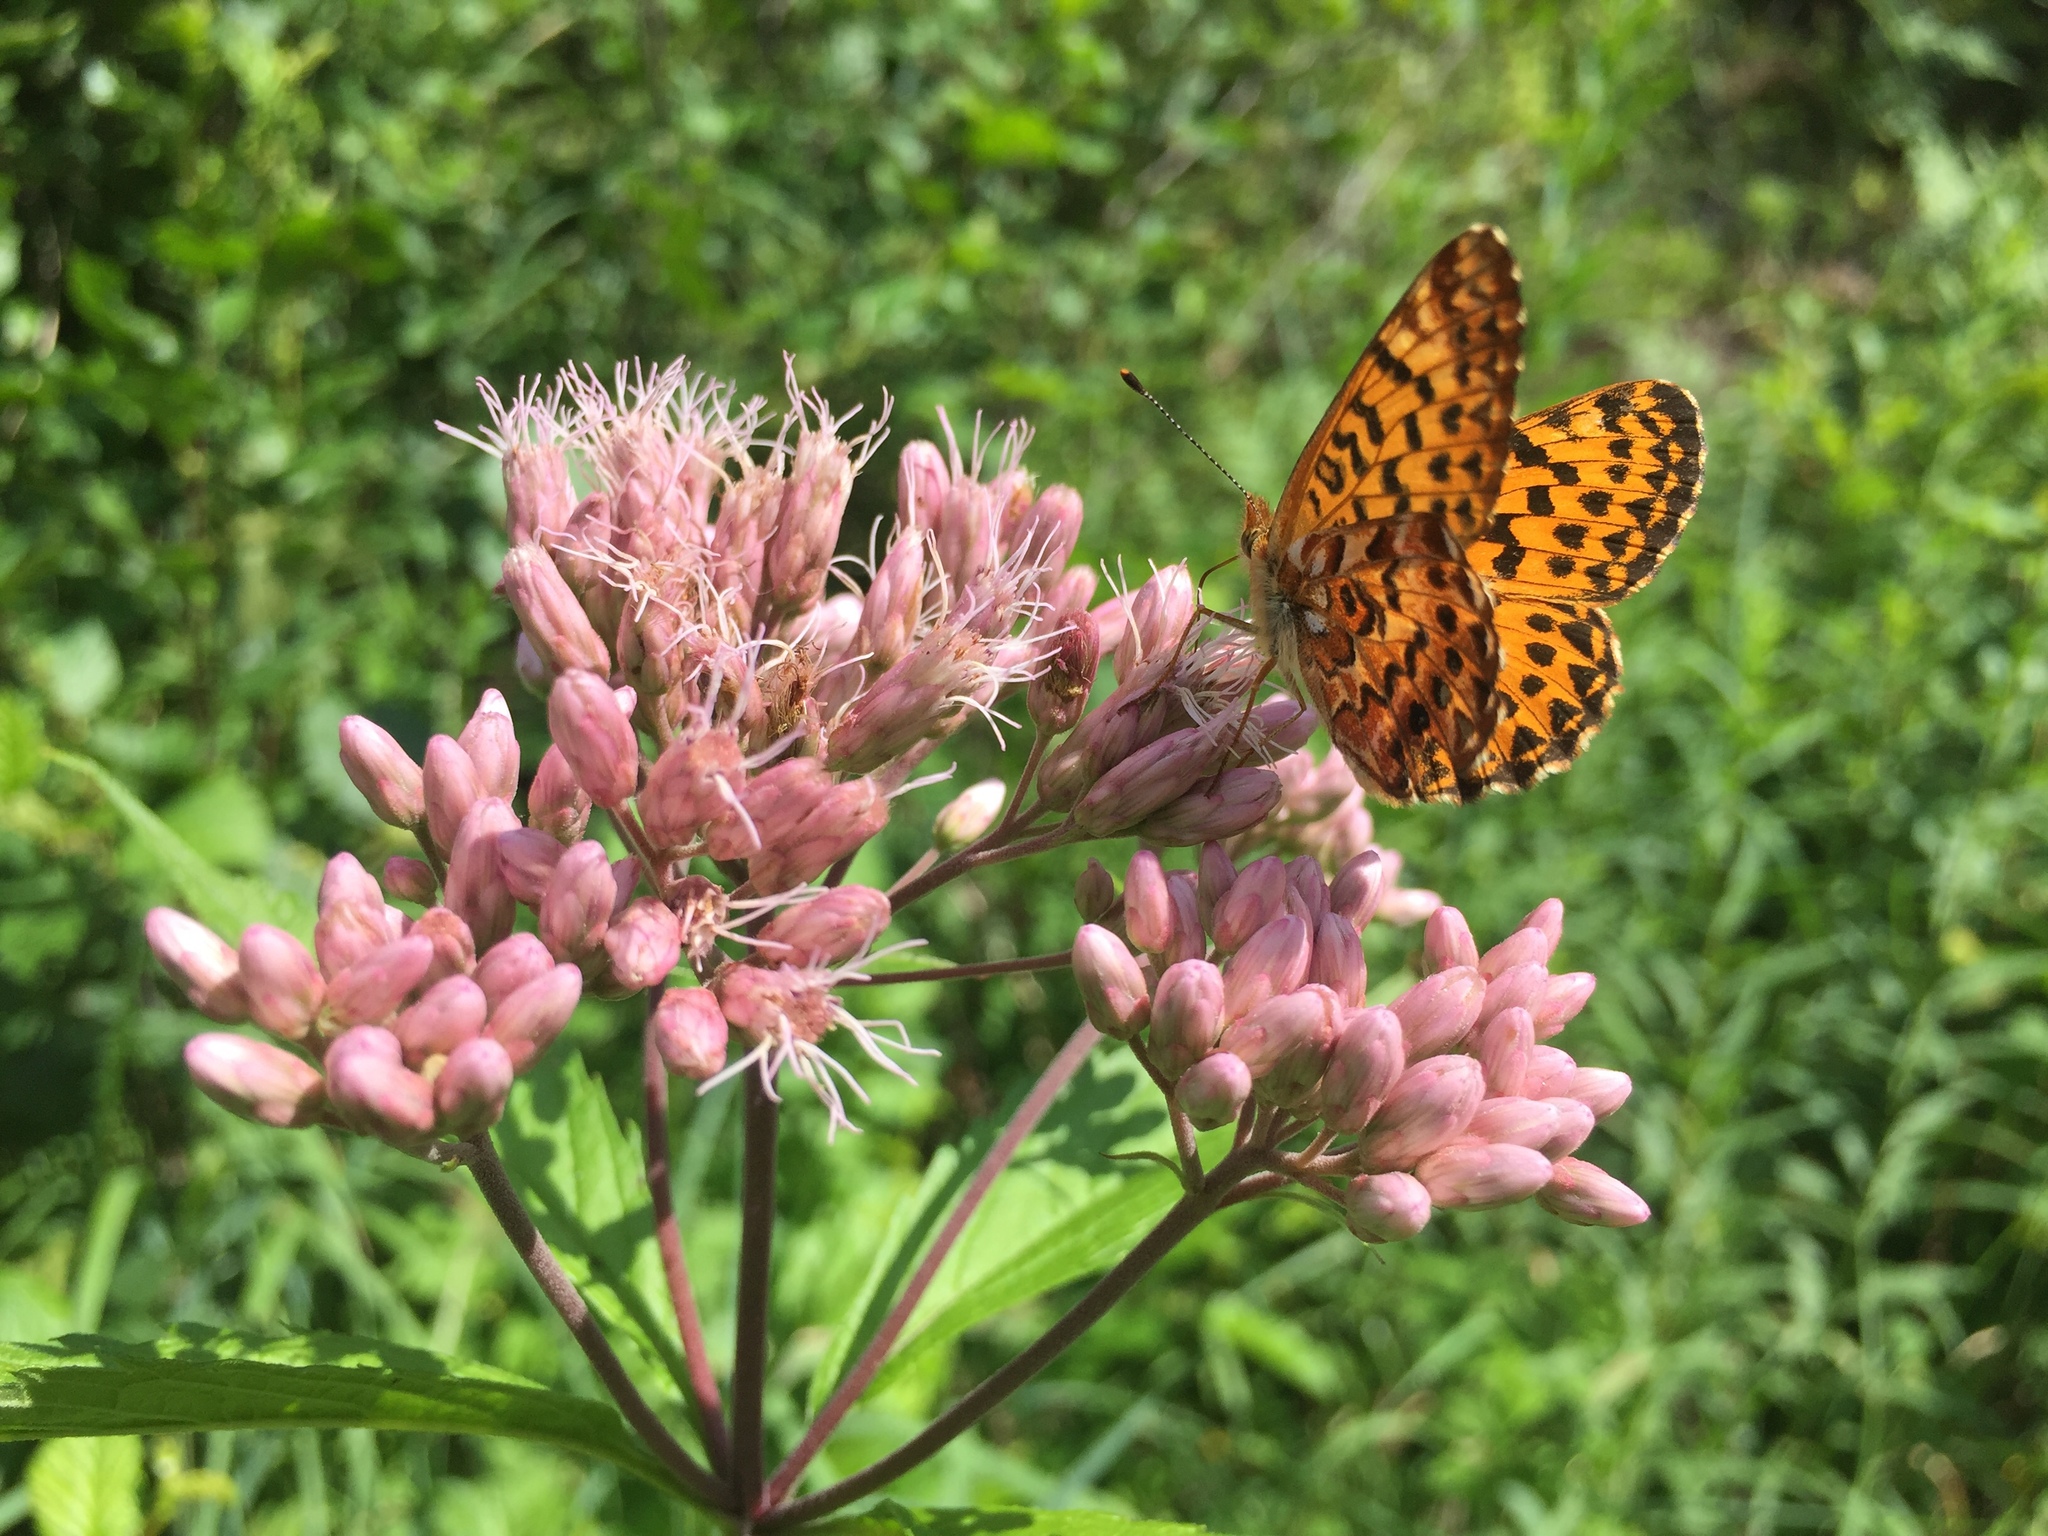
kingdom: Animalia
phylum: Arthropoda
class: Insecta
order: Lepidoptera
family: Nymphalidae
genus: Boloria
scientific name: Boloria chariclea
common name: Arctic fritillary
